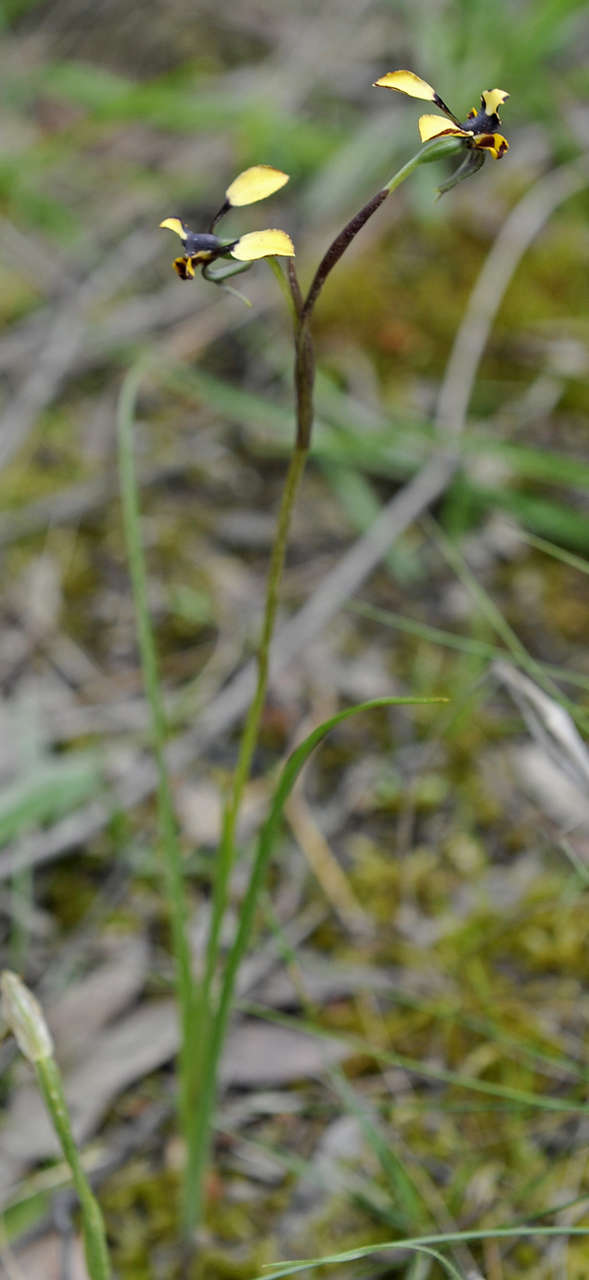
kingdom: Plantae
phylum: Tracheophyta
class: Liliopsida
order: Asparagales
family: Orchidaceae
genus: Diuris
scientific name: Diuris pardina
